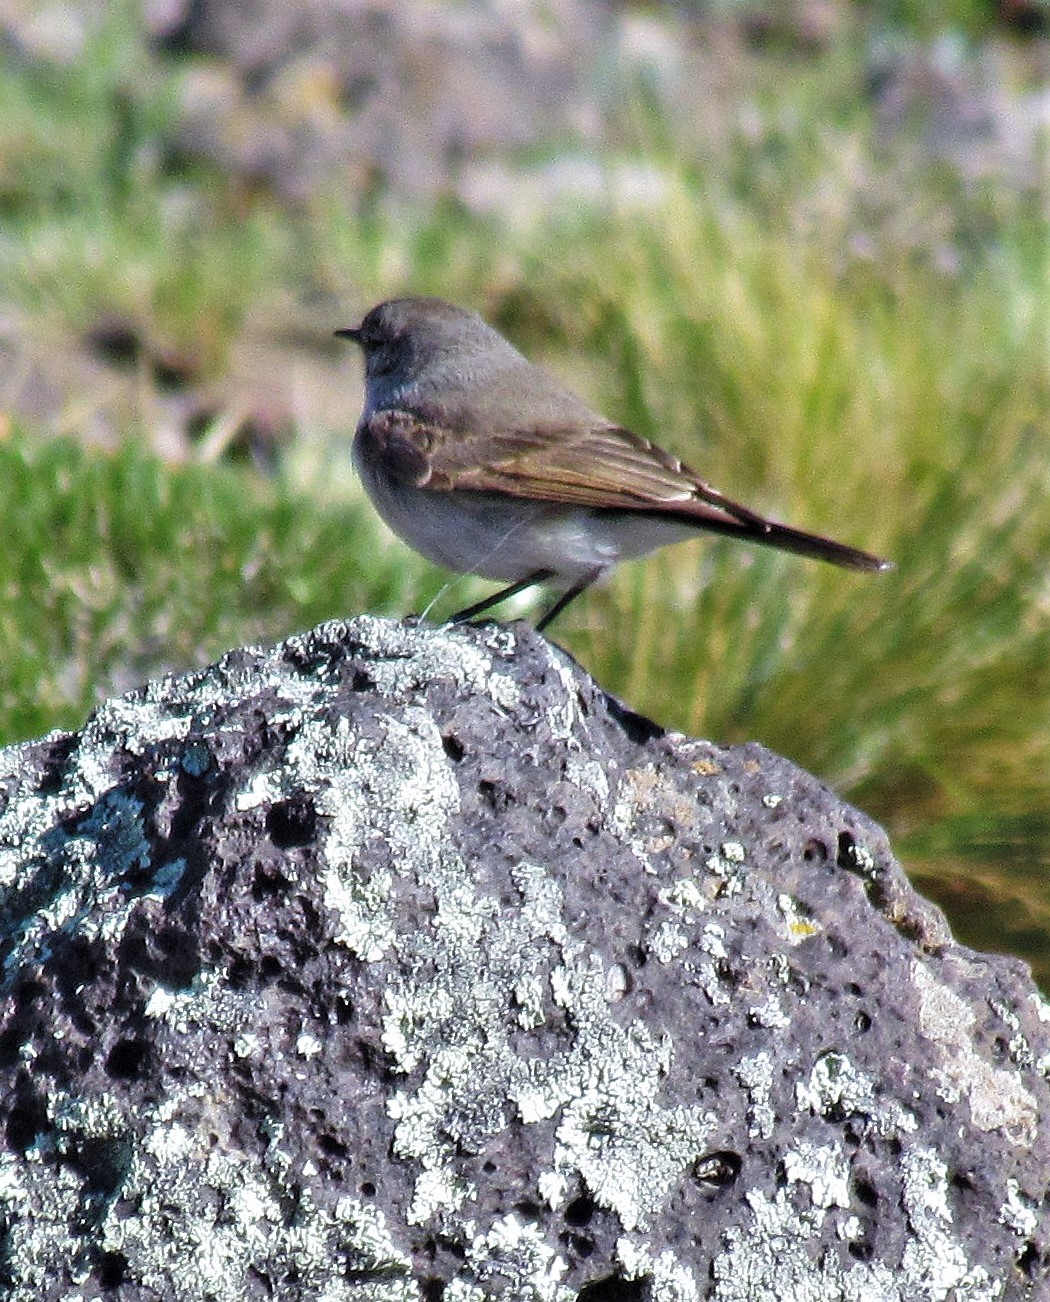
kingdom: Animalia
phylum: Chordata
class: Aves
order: Passeriformes
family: Tyrannidae
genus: Muscisaxicola
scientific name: Muscisaxicola maculirostris
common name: Spot-billed ground tyrant
